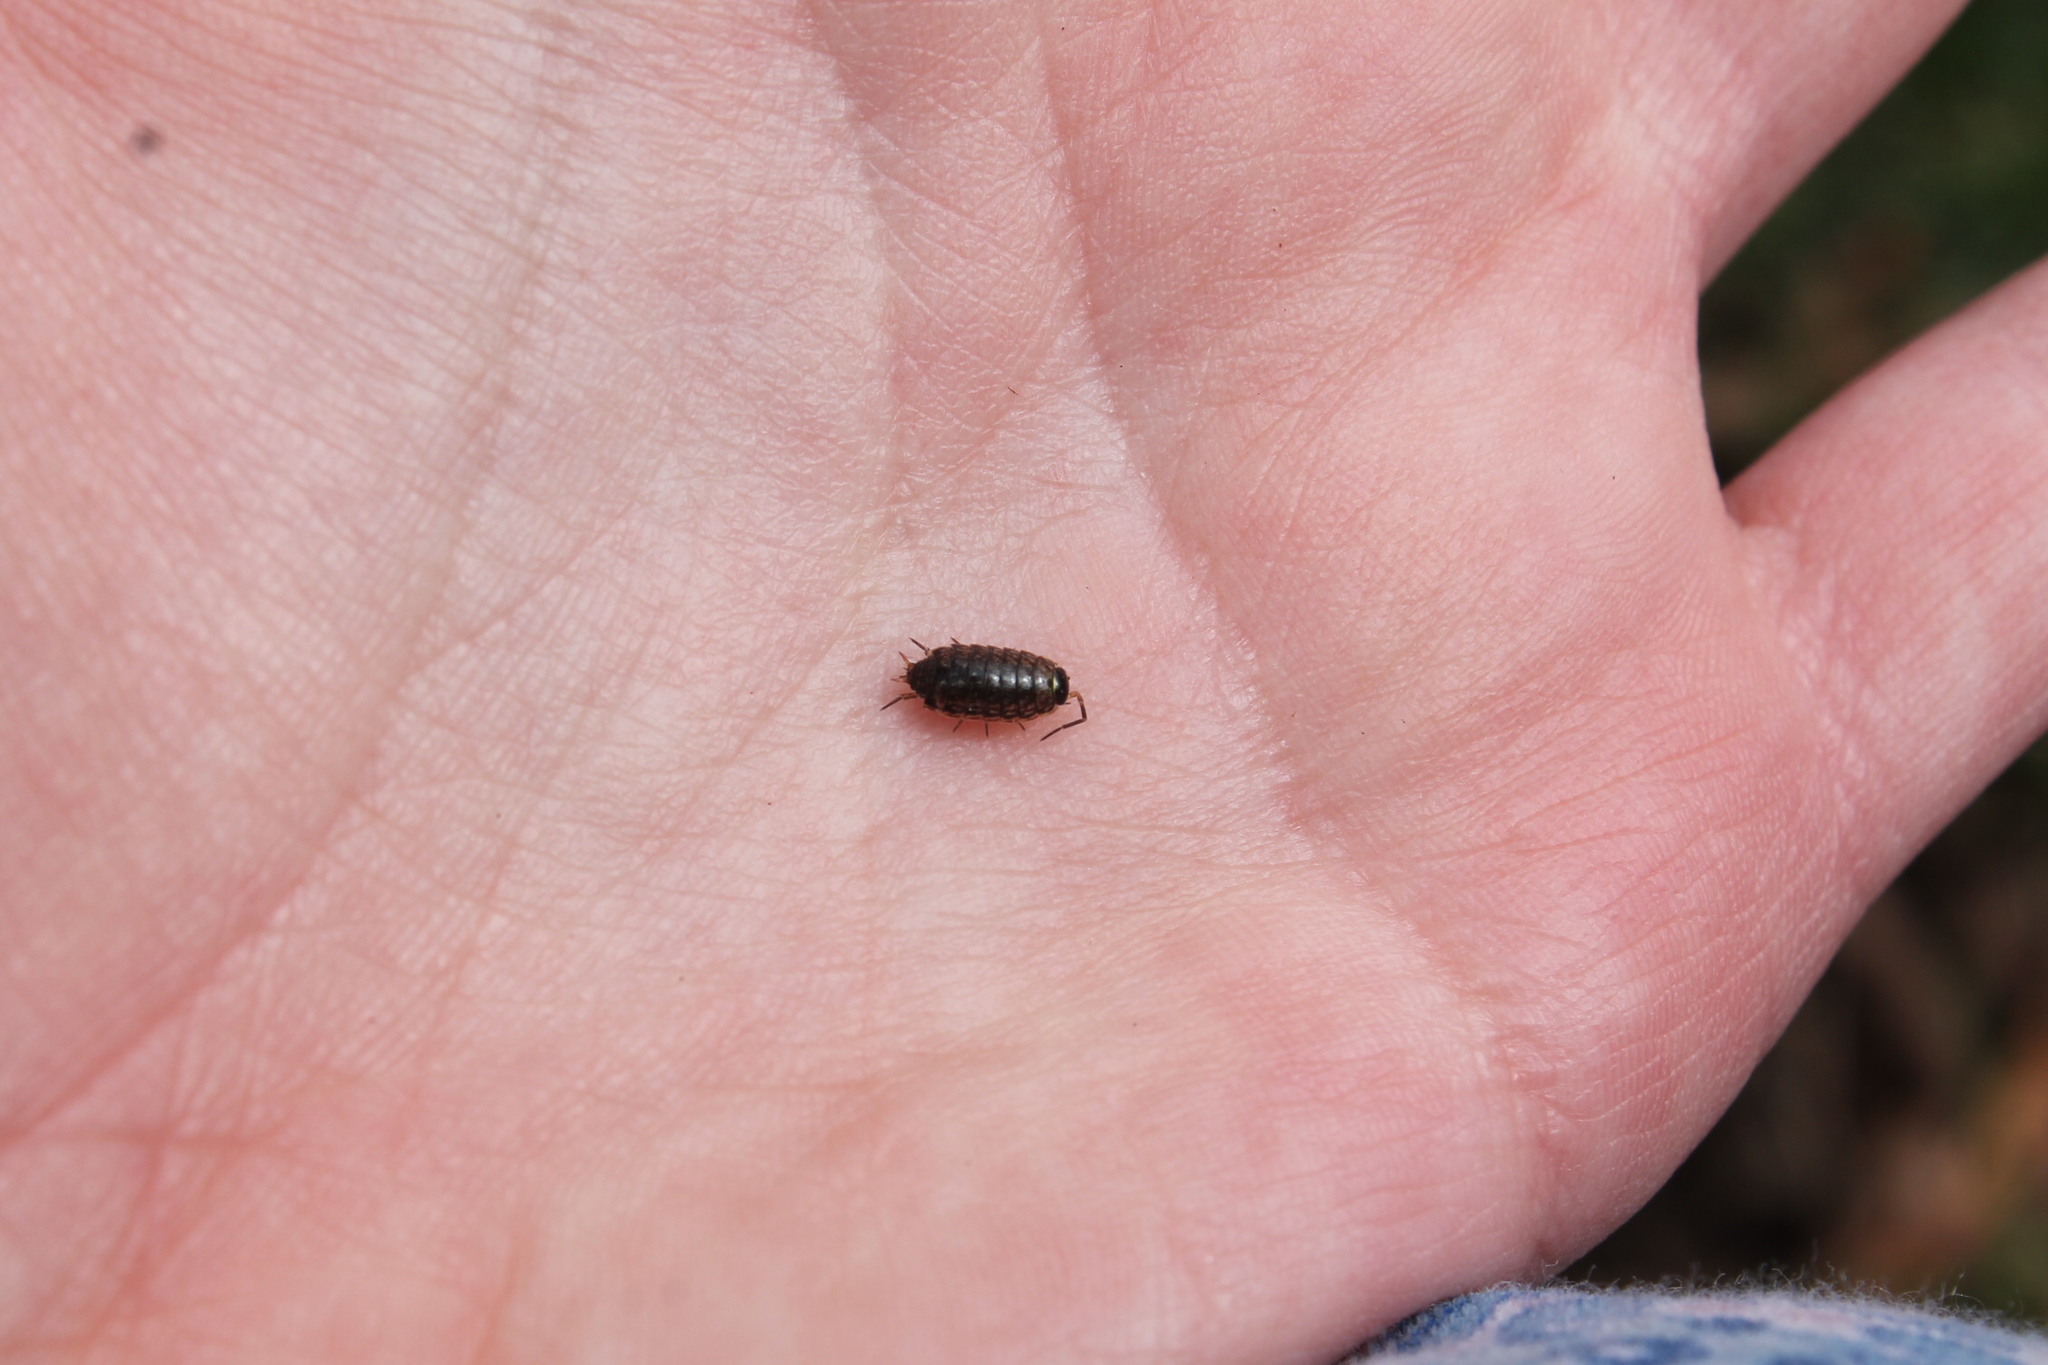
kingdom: Animalia
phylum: Arthropoda
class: Malacostraca
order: Isopoda
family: Philosciidae
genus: Philoscia
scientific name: Philoscia muscorum
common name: Common striped woodlouse
